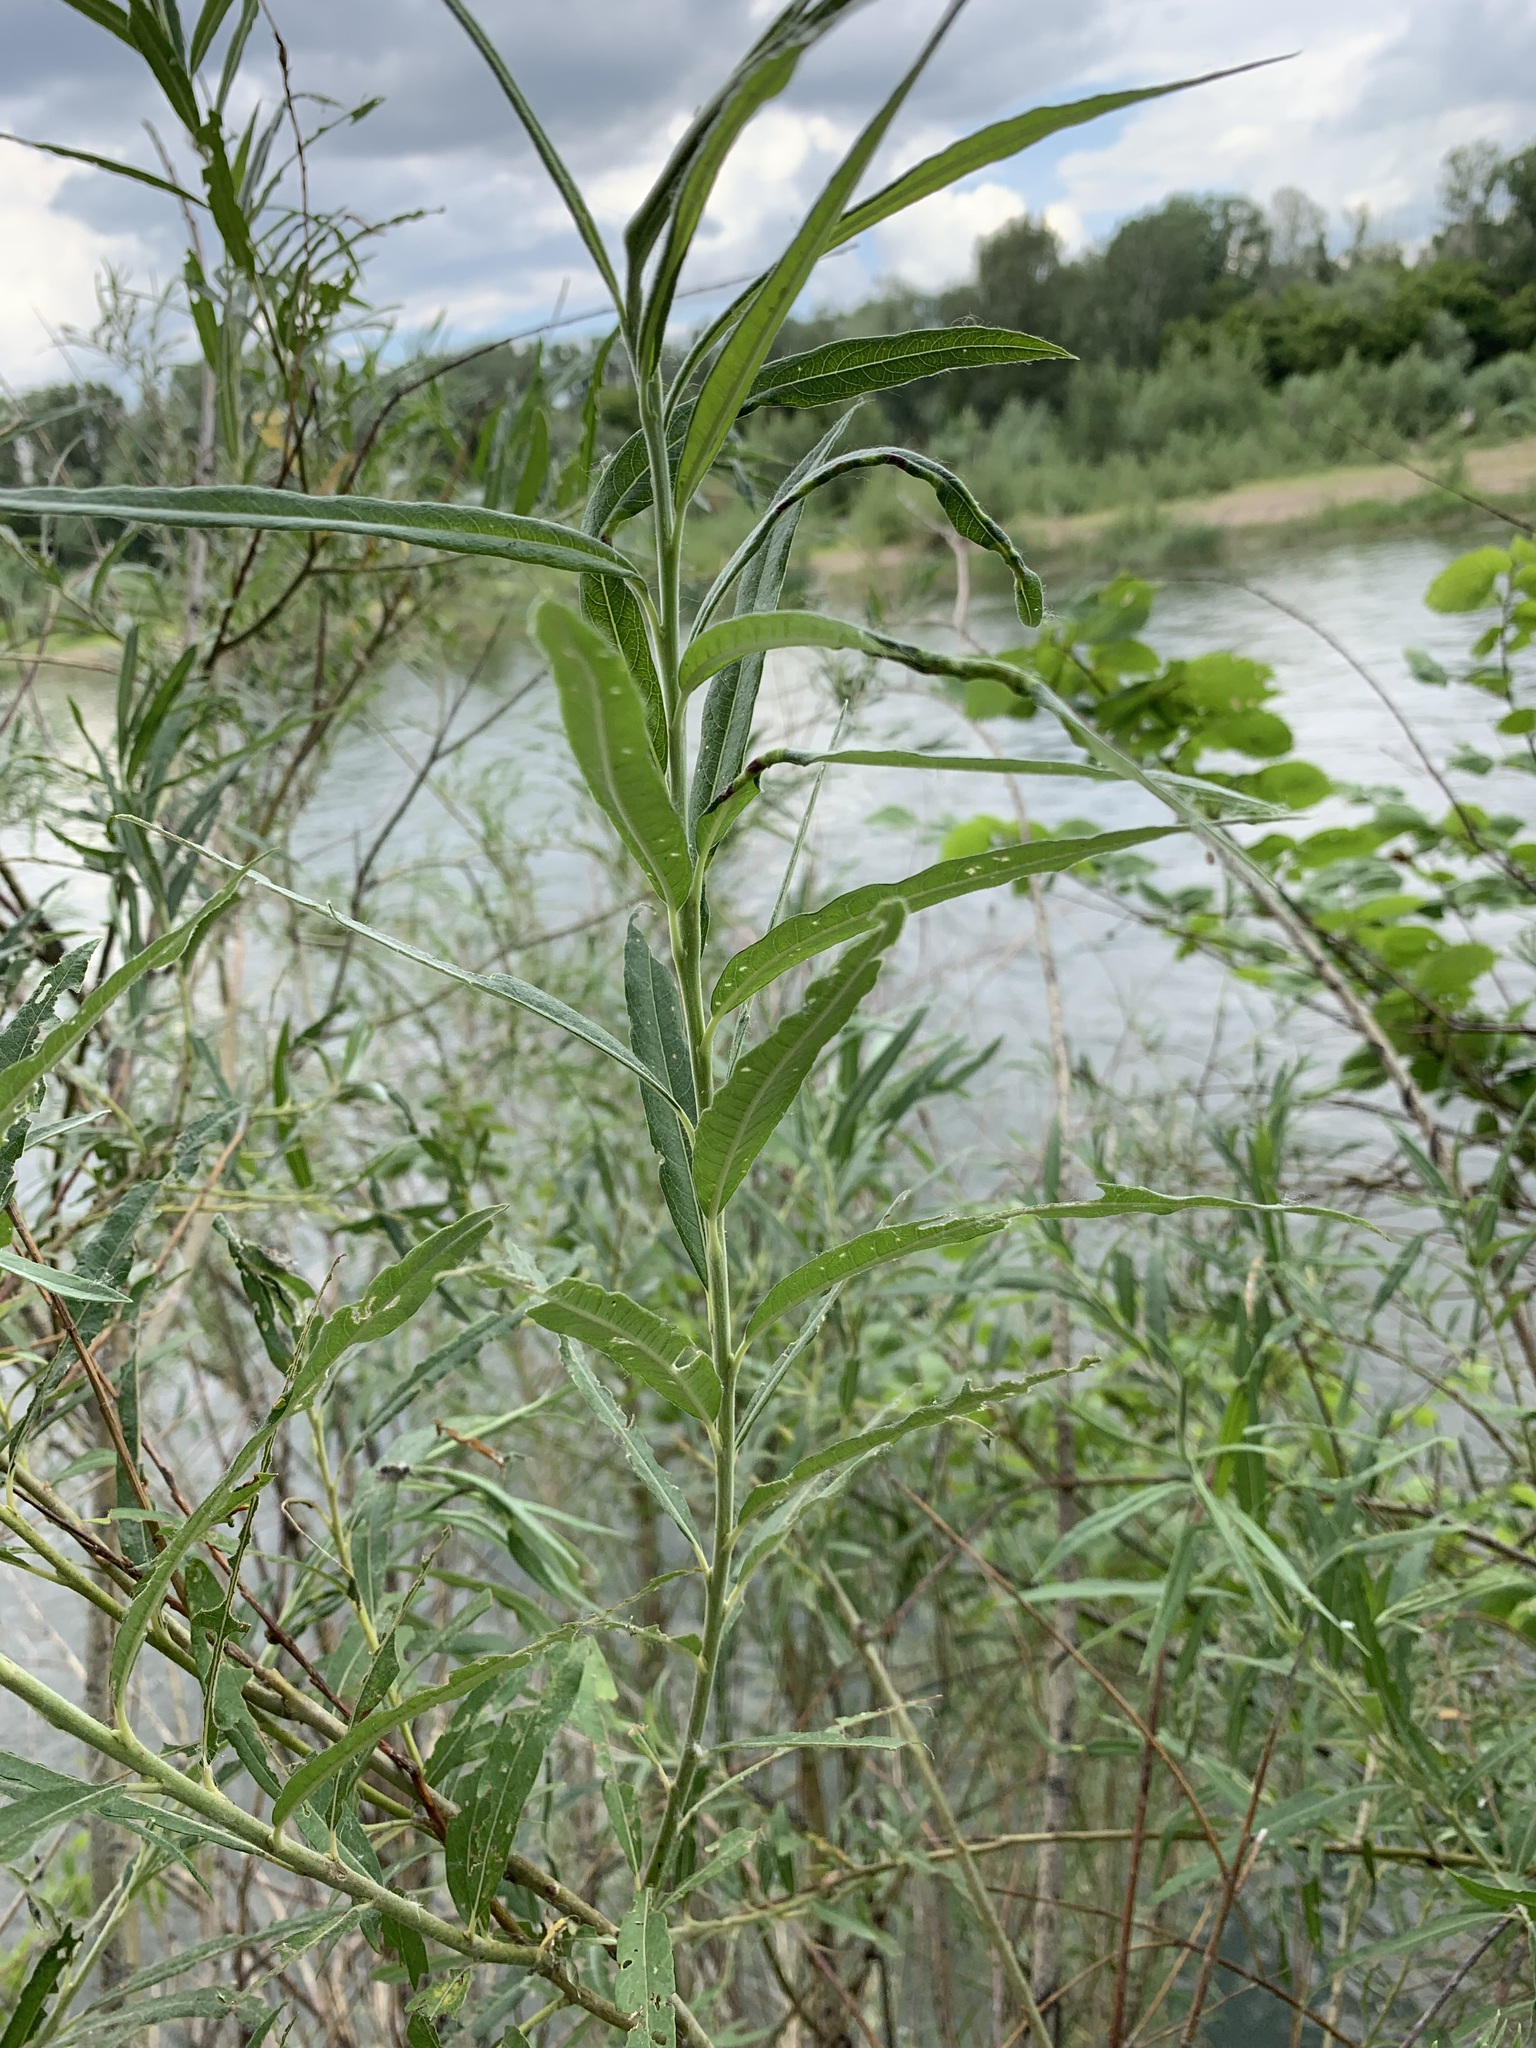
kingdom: Plantae
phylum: Tracheophyta
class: Magnoliopsida
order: Malpighiales
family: Salicaceae
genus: Salix
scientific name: Salix viminalis
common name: Osier
